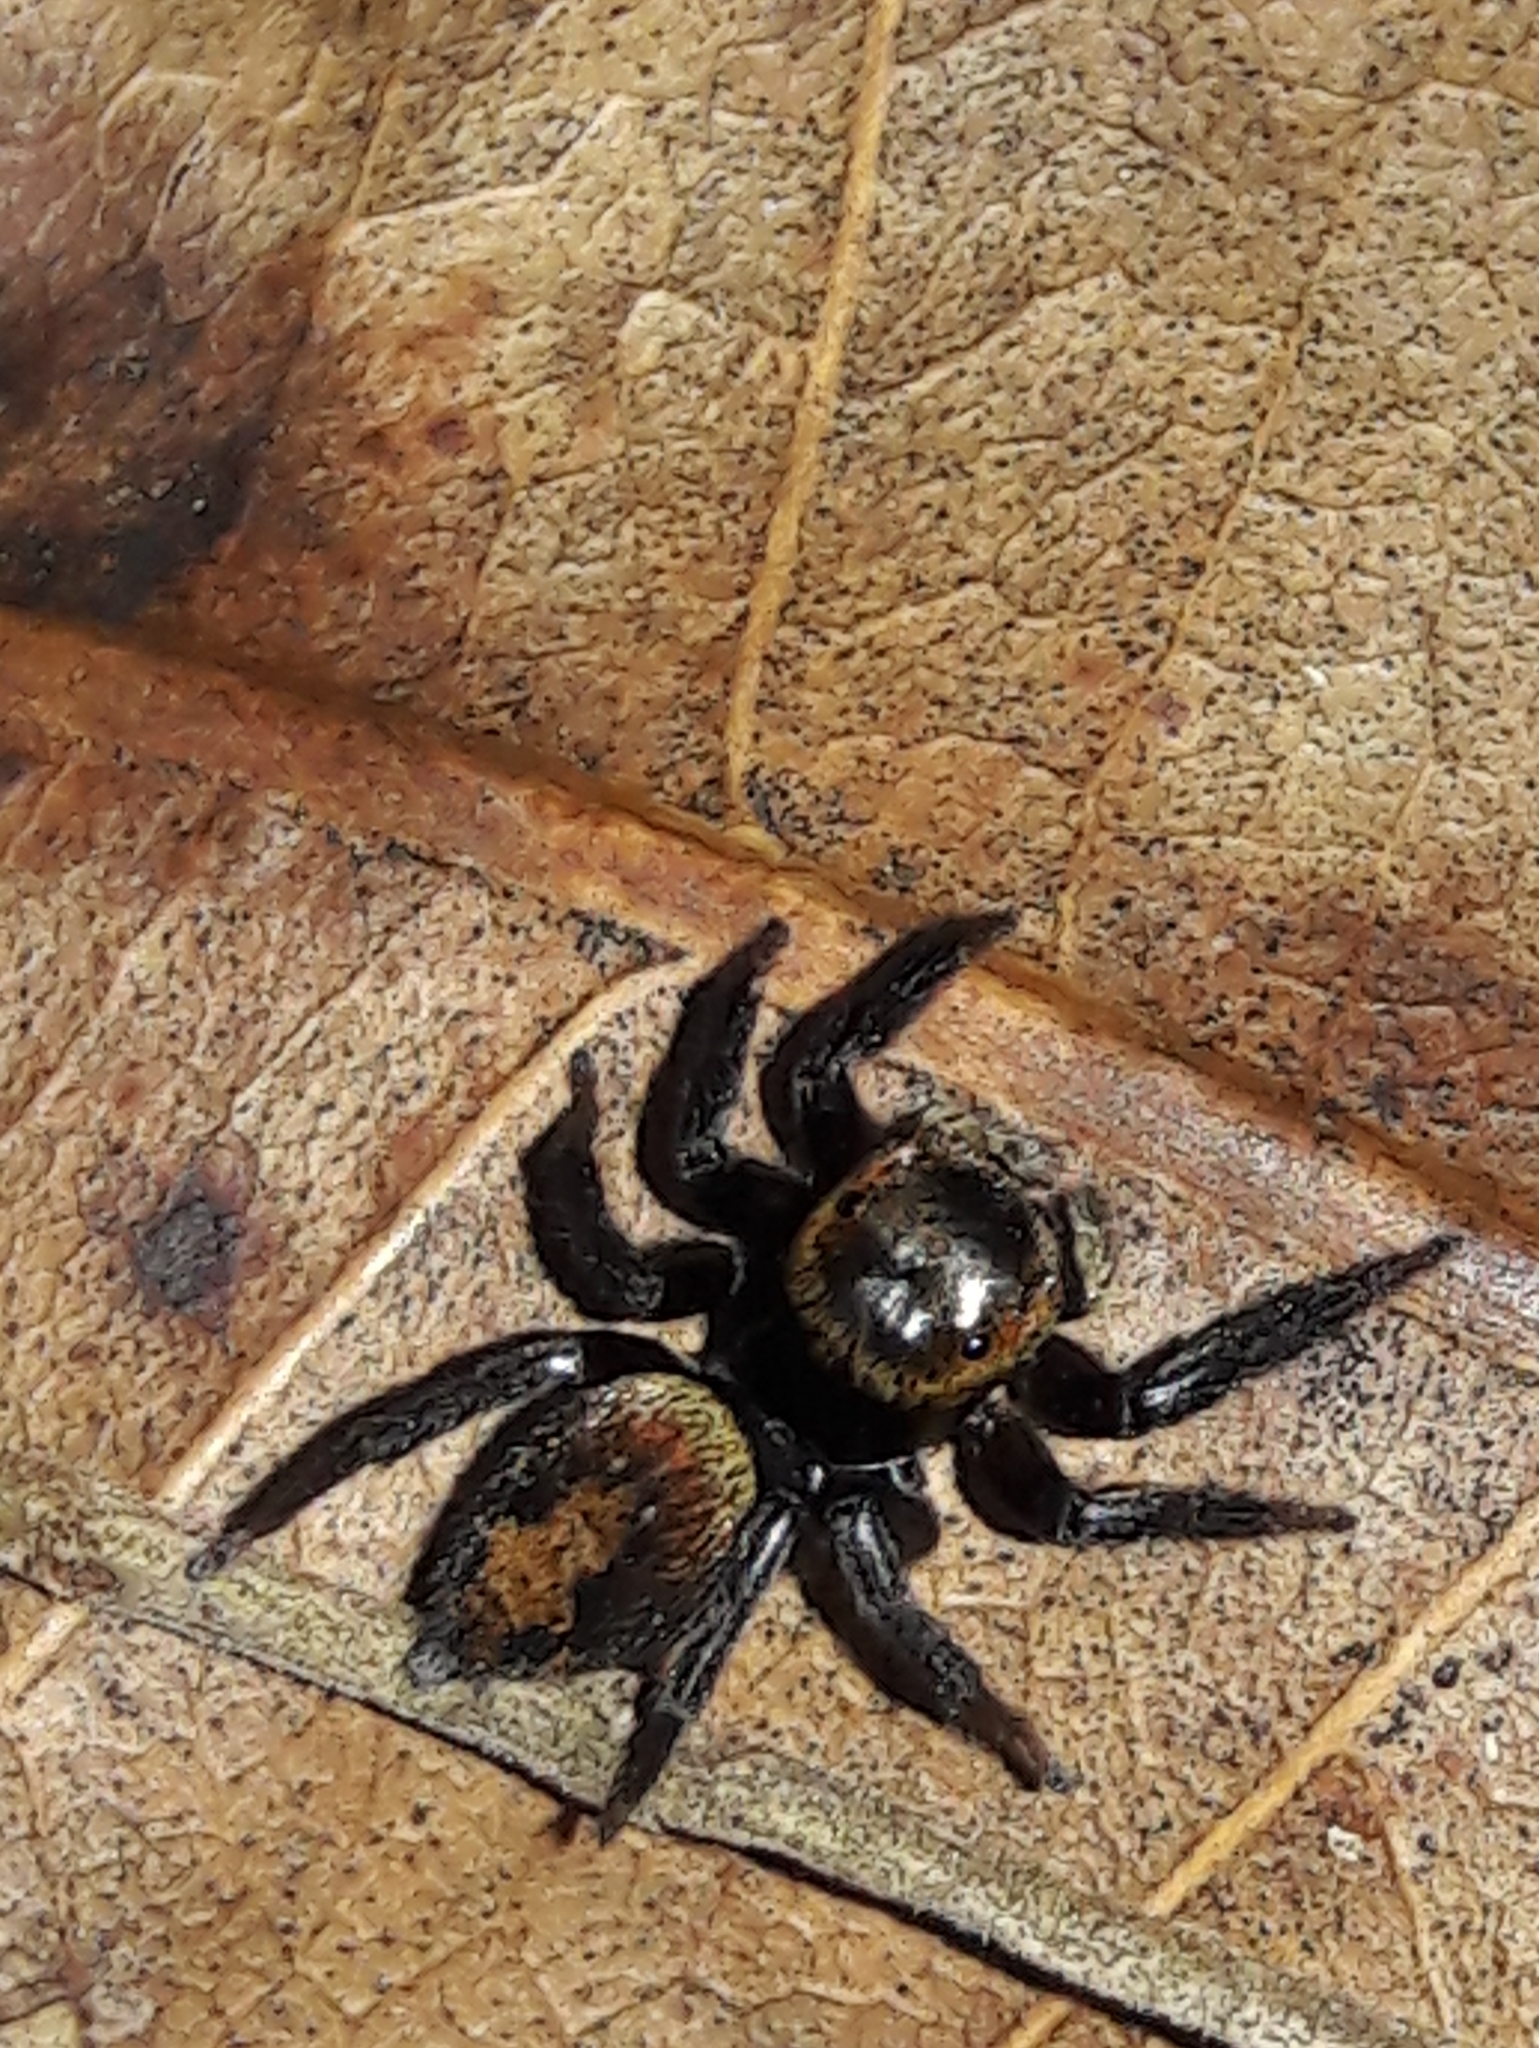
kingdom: Animalia
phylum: Arthropoda
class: Arachnida
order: Araneae
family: Salticidae
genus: Hasarius
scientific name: Hasarius adansoni
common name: Jumping spider
